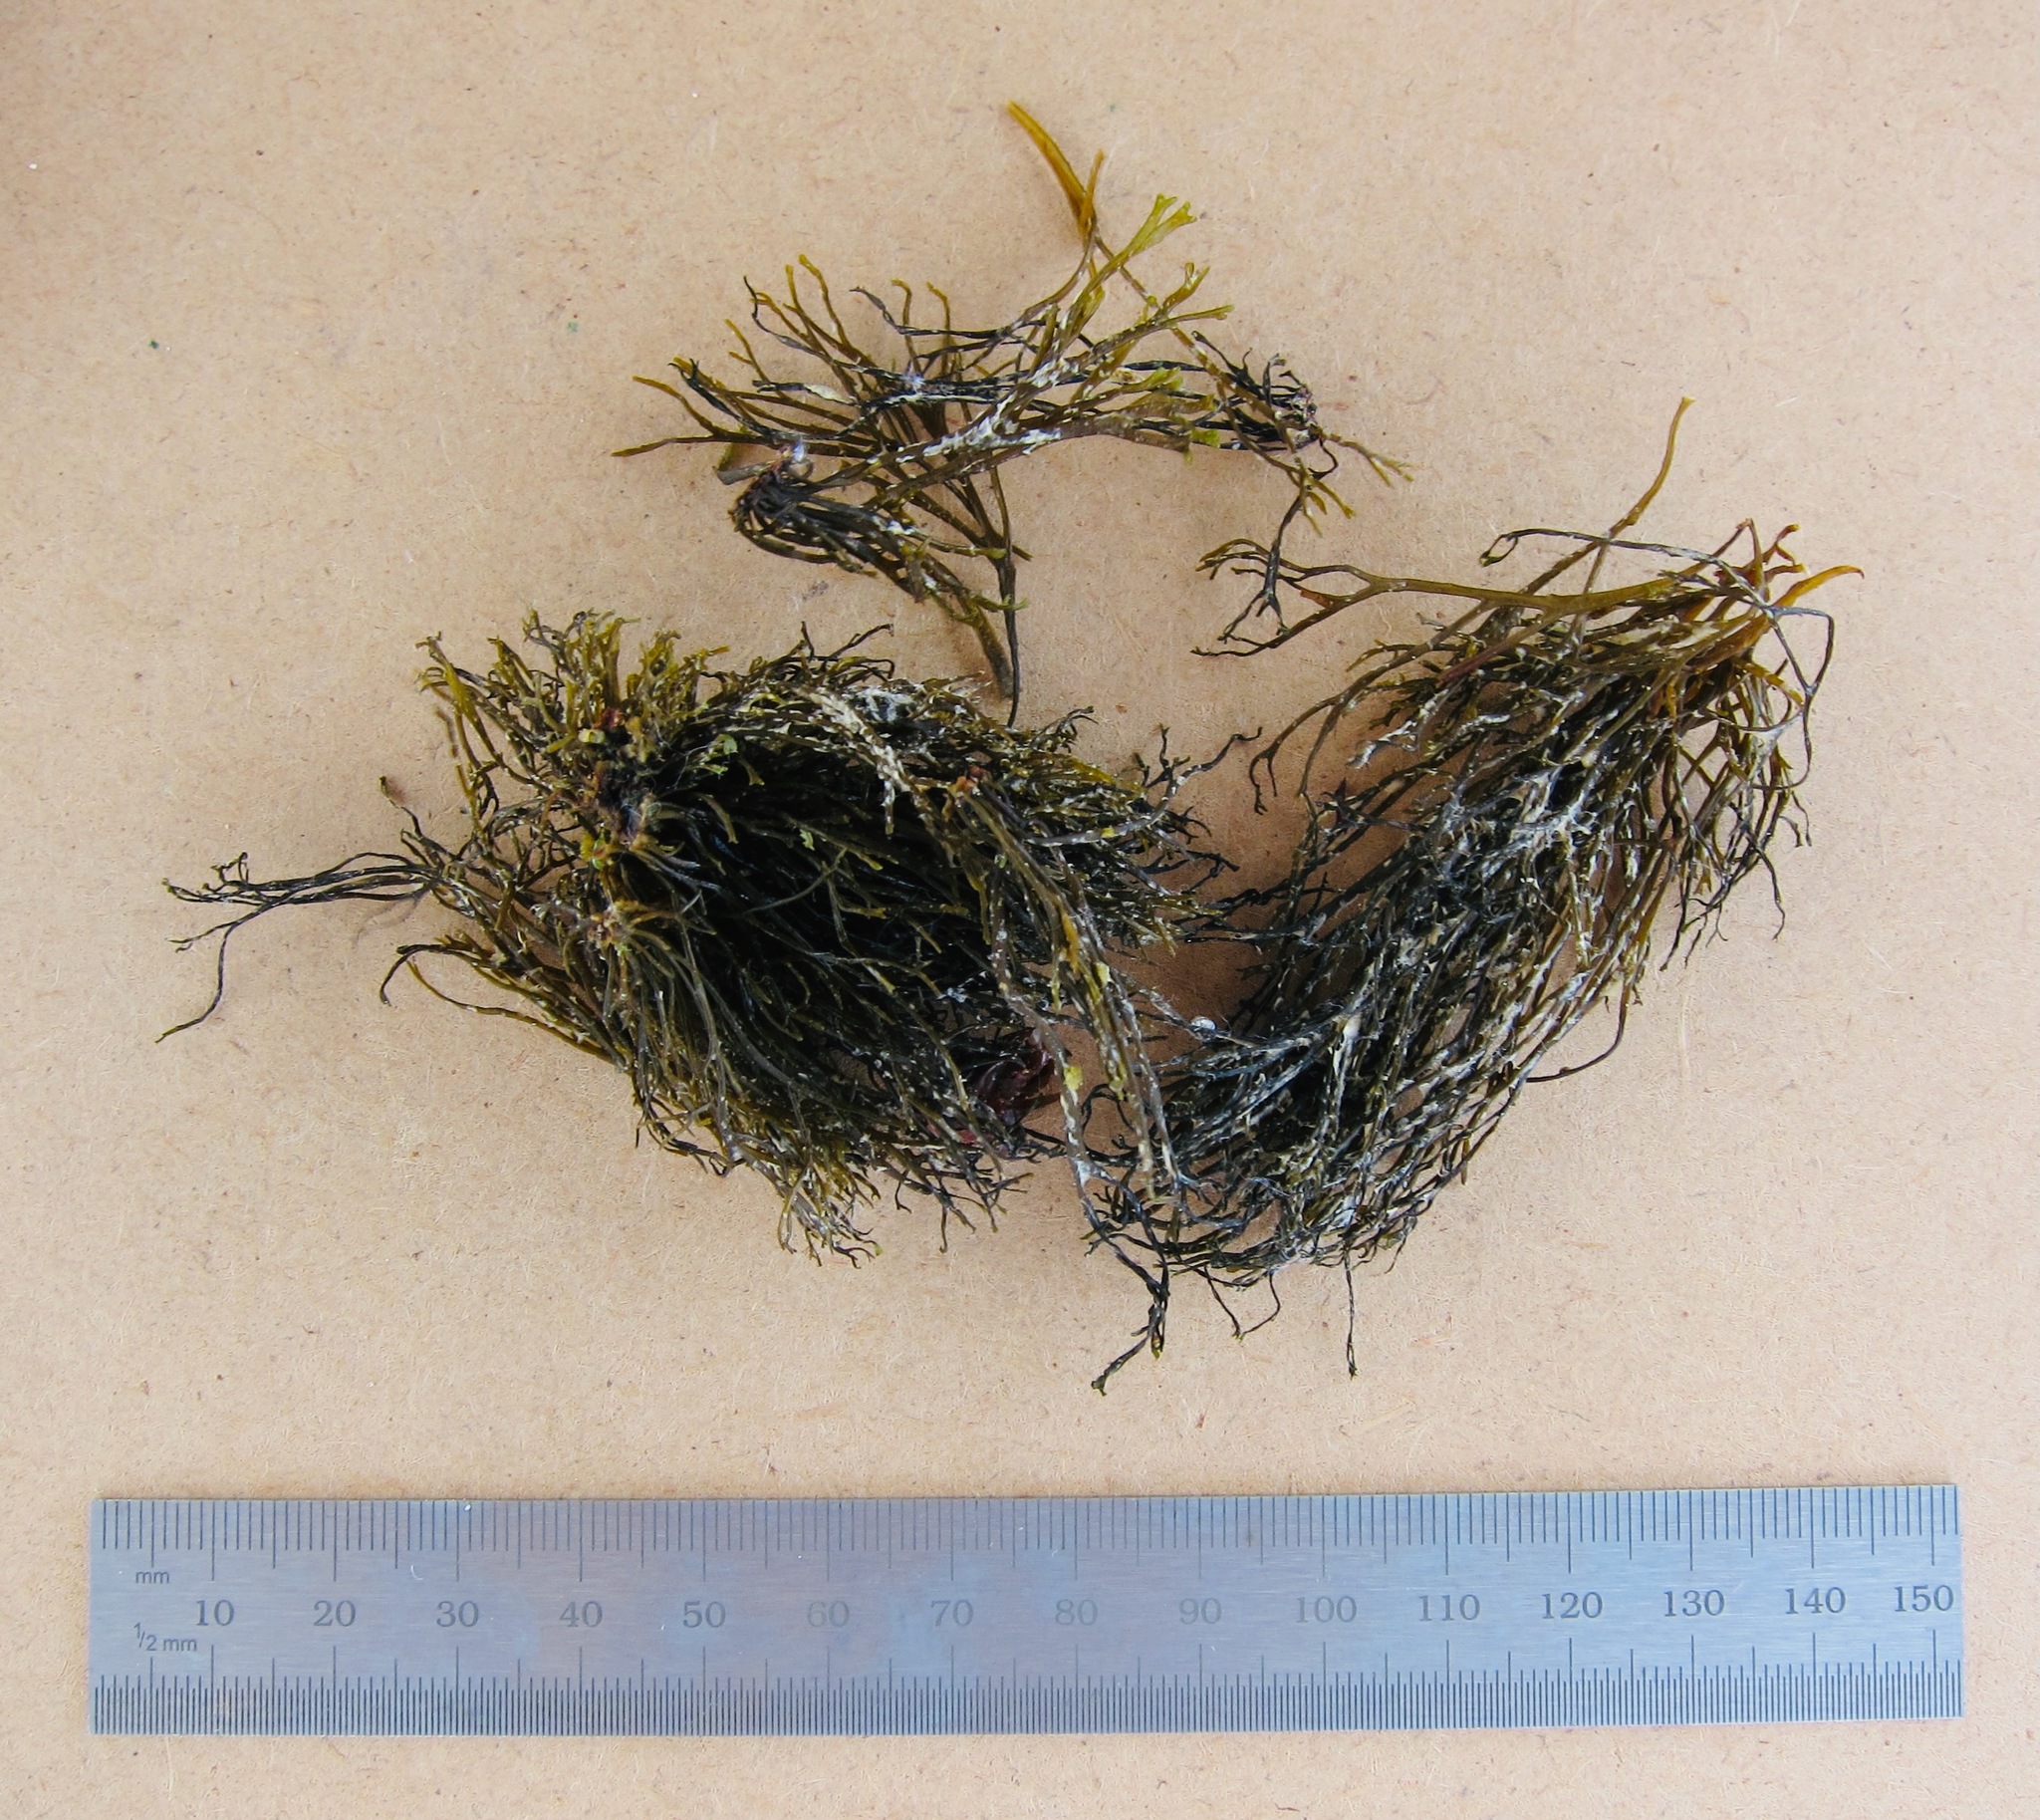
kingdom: Chromista
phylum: Ochrophyta
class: Phaeophyceae
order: Scytosiphonales
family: Scytosiphonaceae
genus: Chnoospora
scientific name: Chnoospora minima
